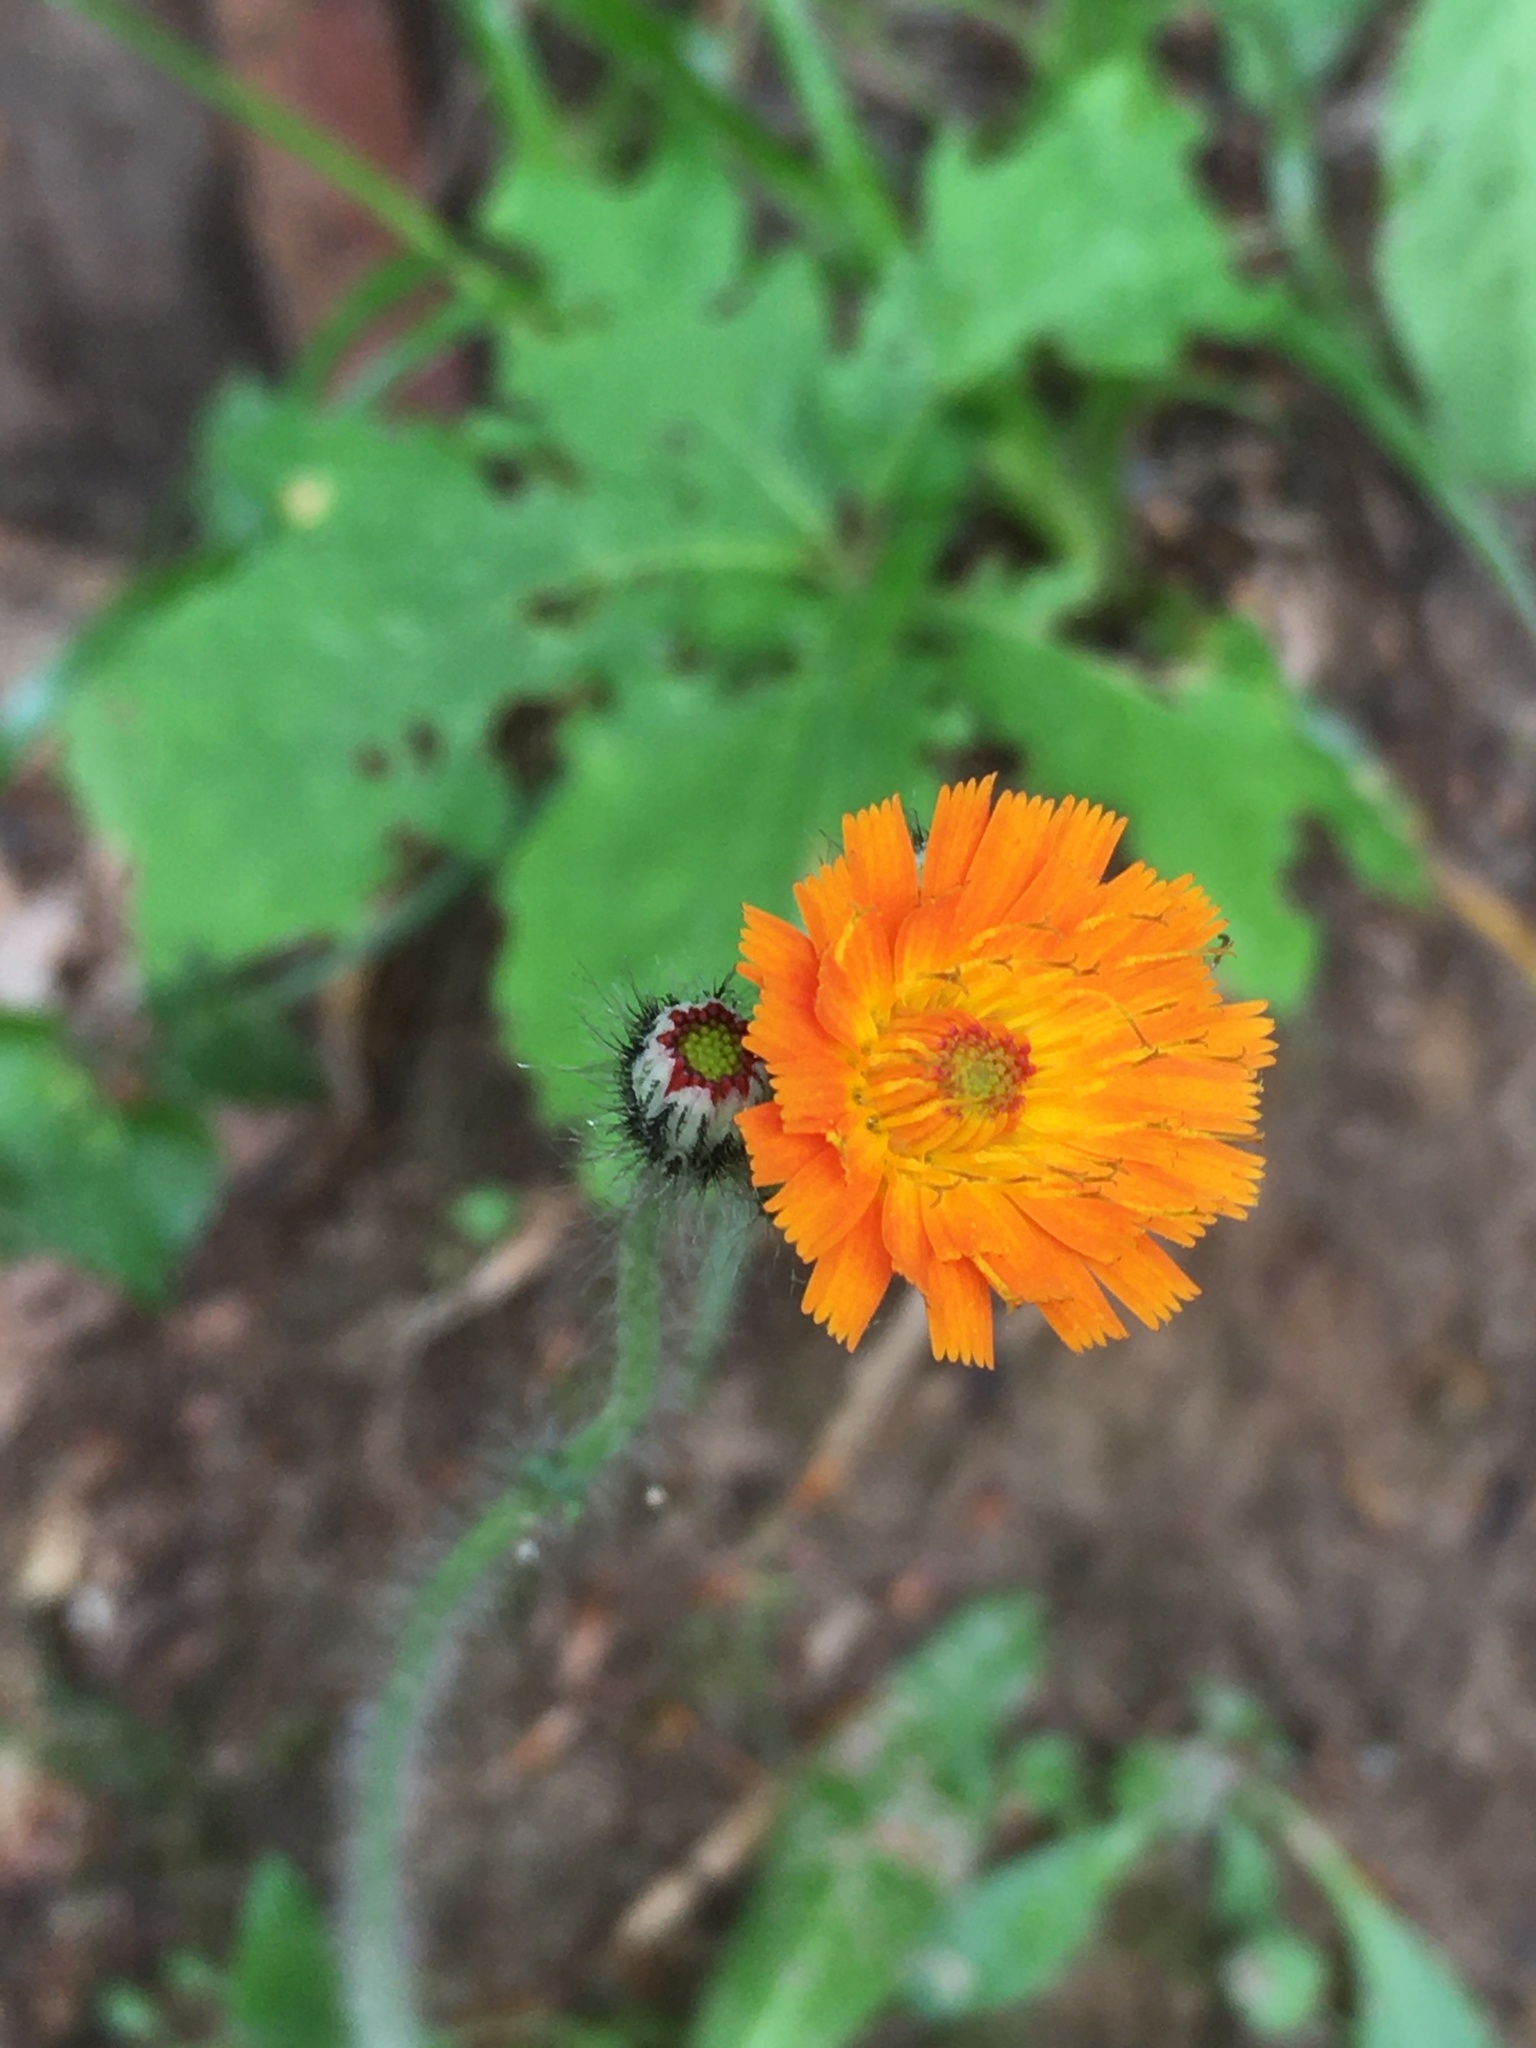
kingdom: Plantae
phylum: Tracheophyta
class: Magnoliopsida
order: Asterales
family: Asteraceae
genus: Pilosella
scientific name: Pilosella aurantiaca
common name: Fox-and-cubs
